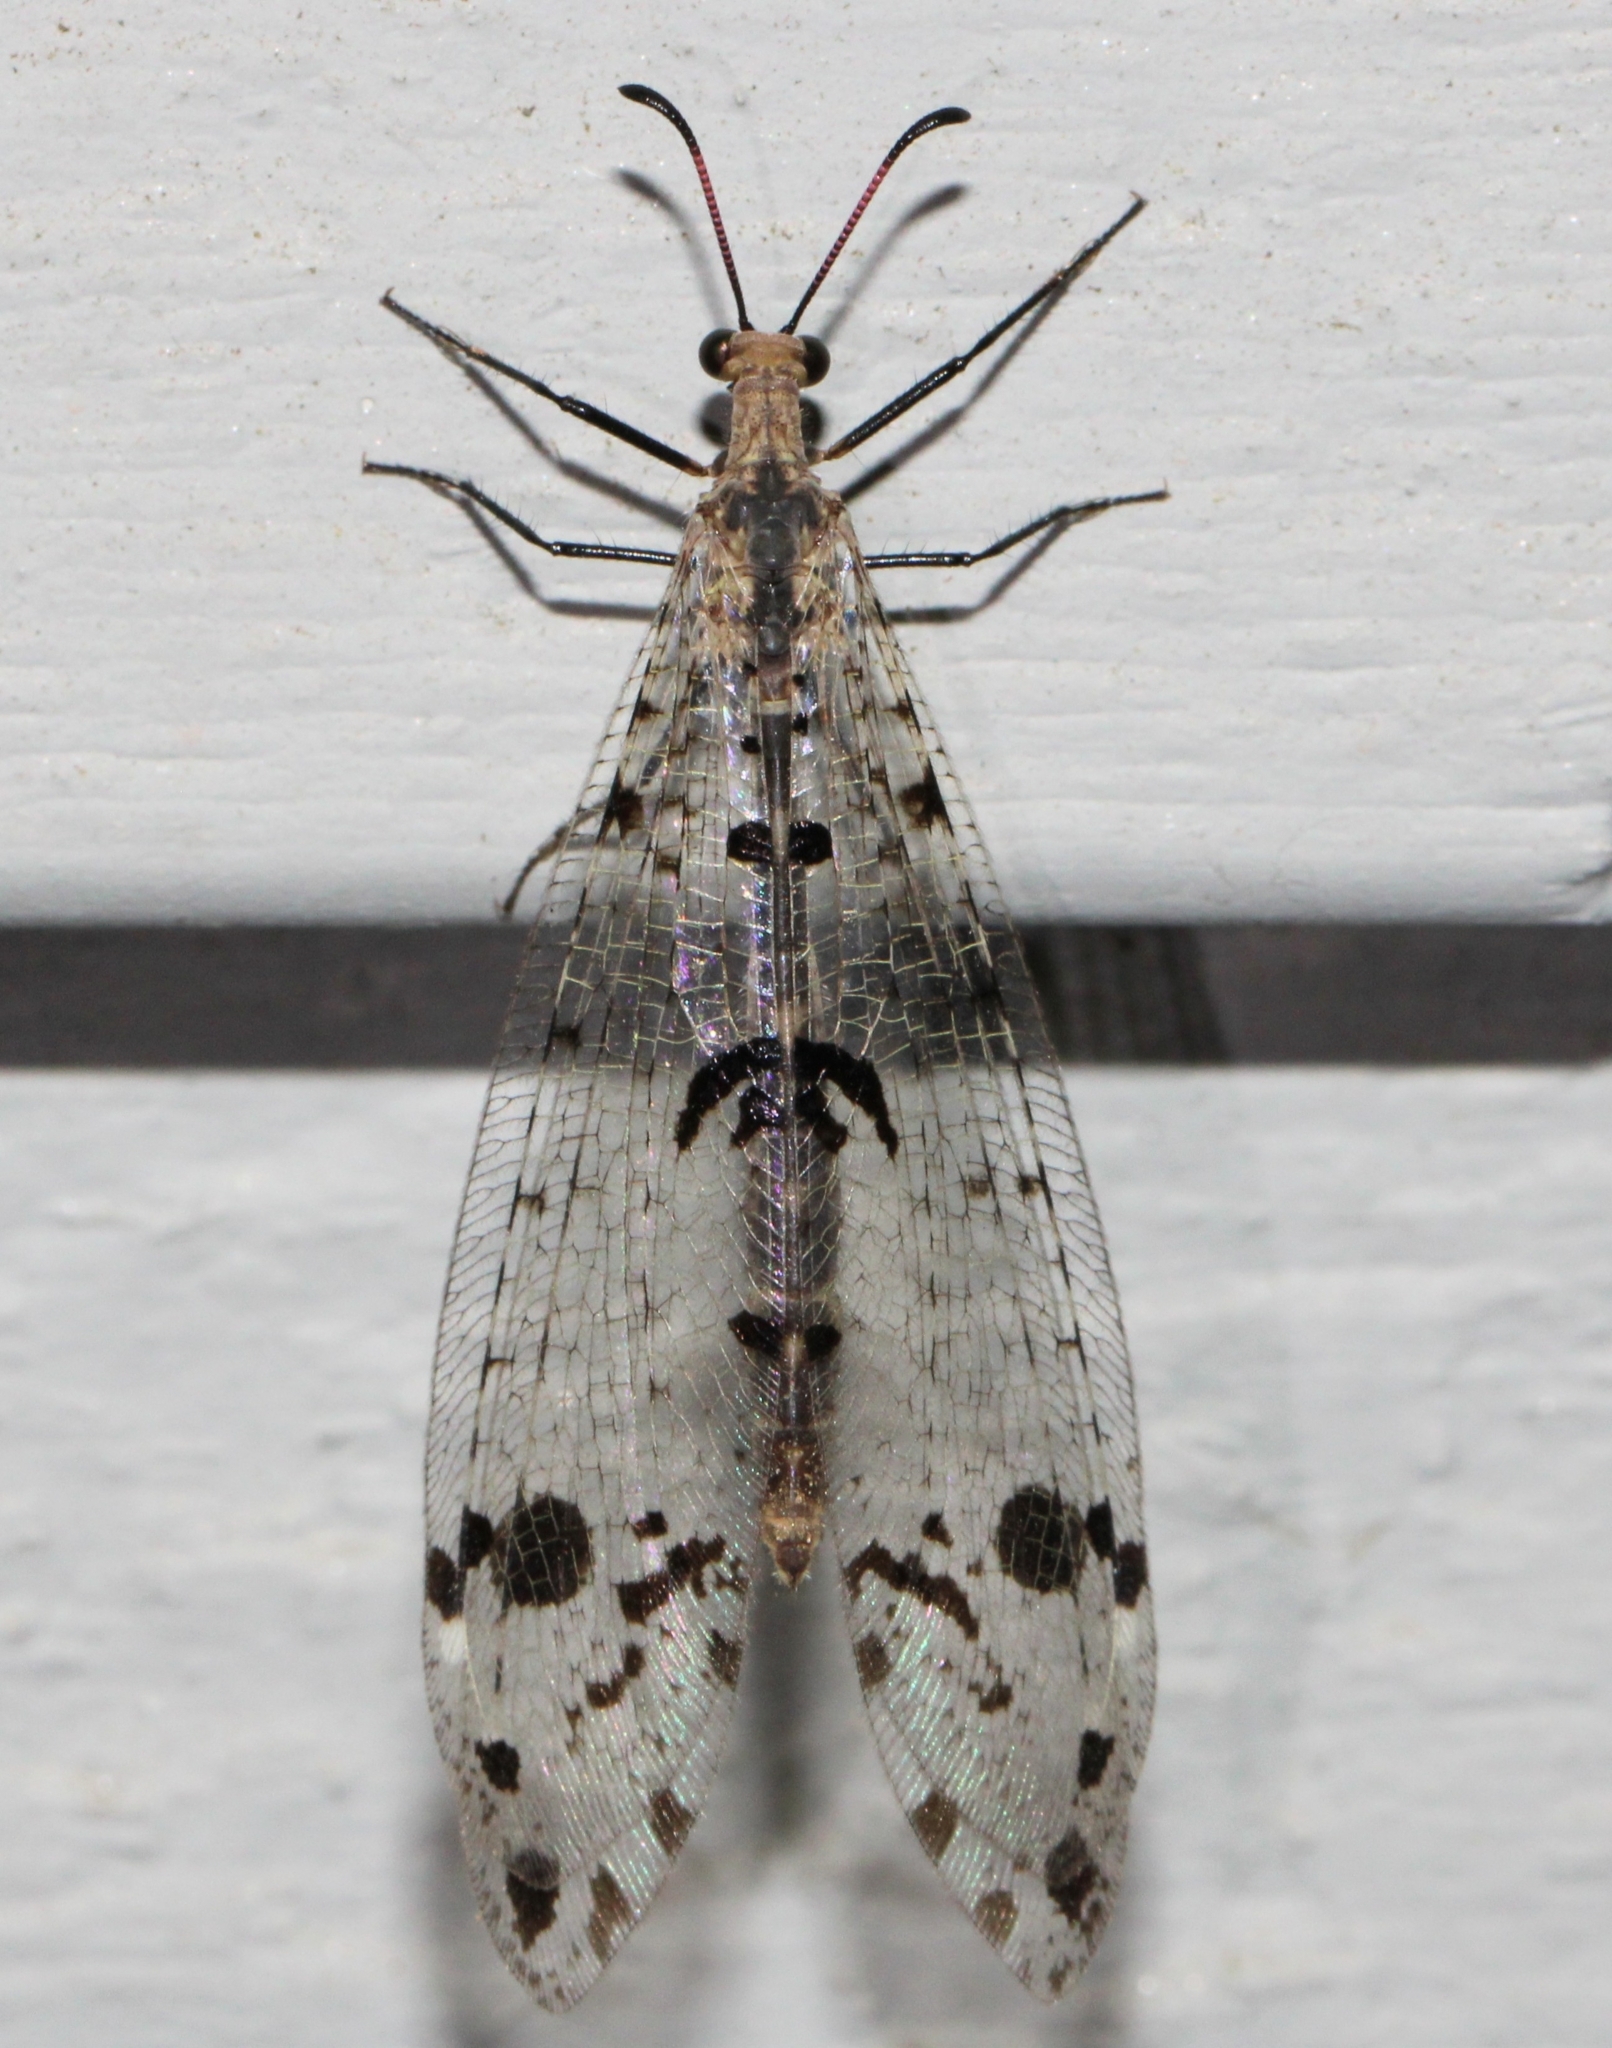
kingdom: Animalia
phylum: Arthropoda
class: Insecta
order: Neuroptera
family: Myrmeleontidae
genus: Dendroleon
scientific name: Dendroleon obsoletus
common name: Eastern spotted-winged antlion
